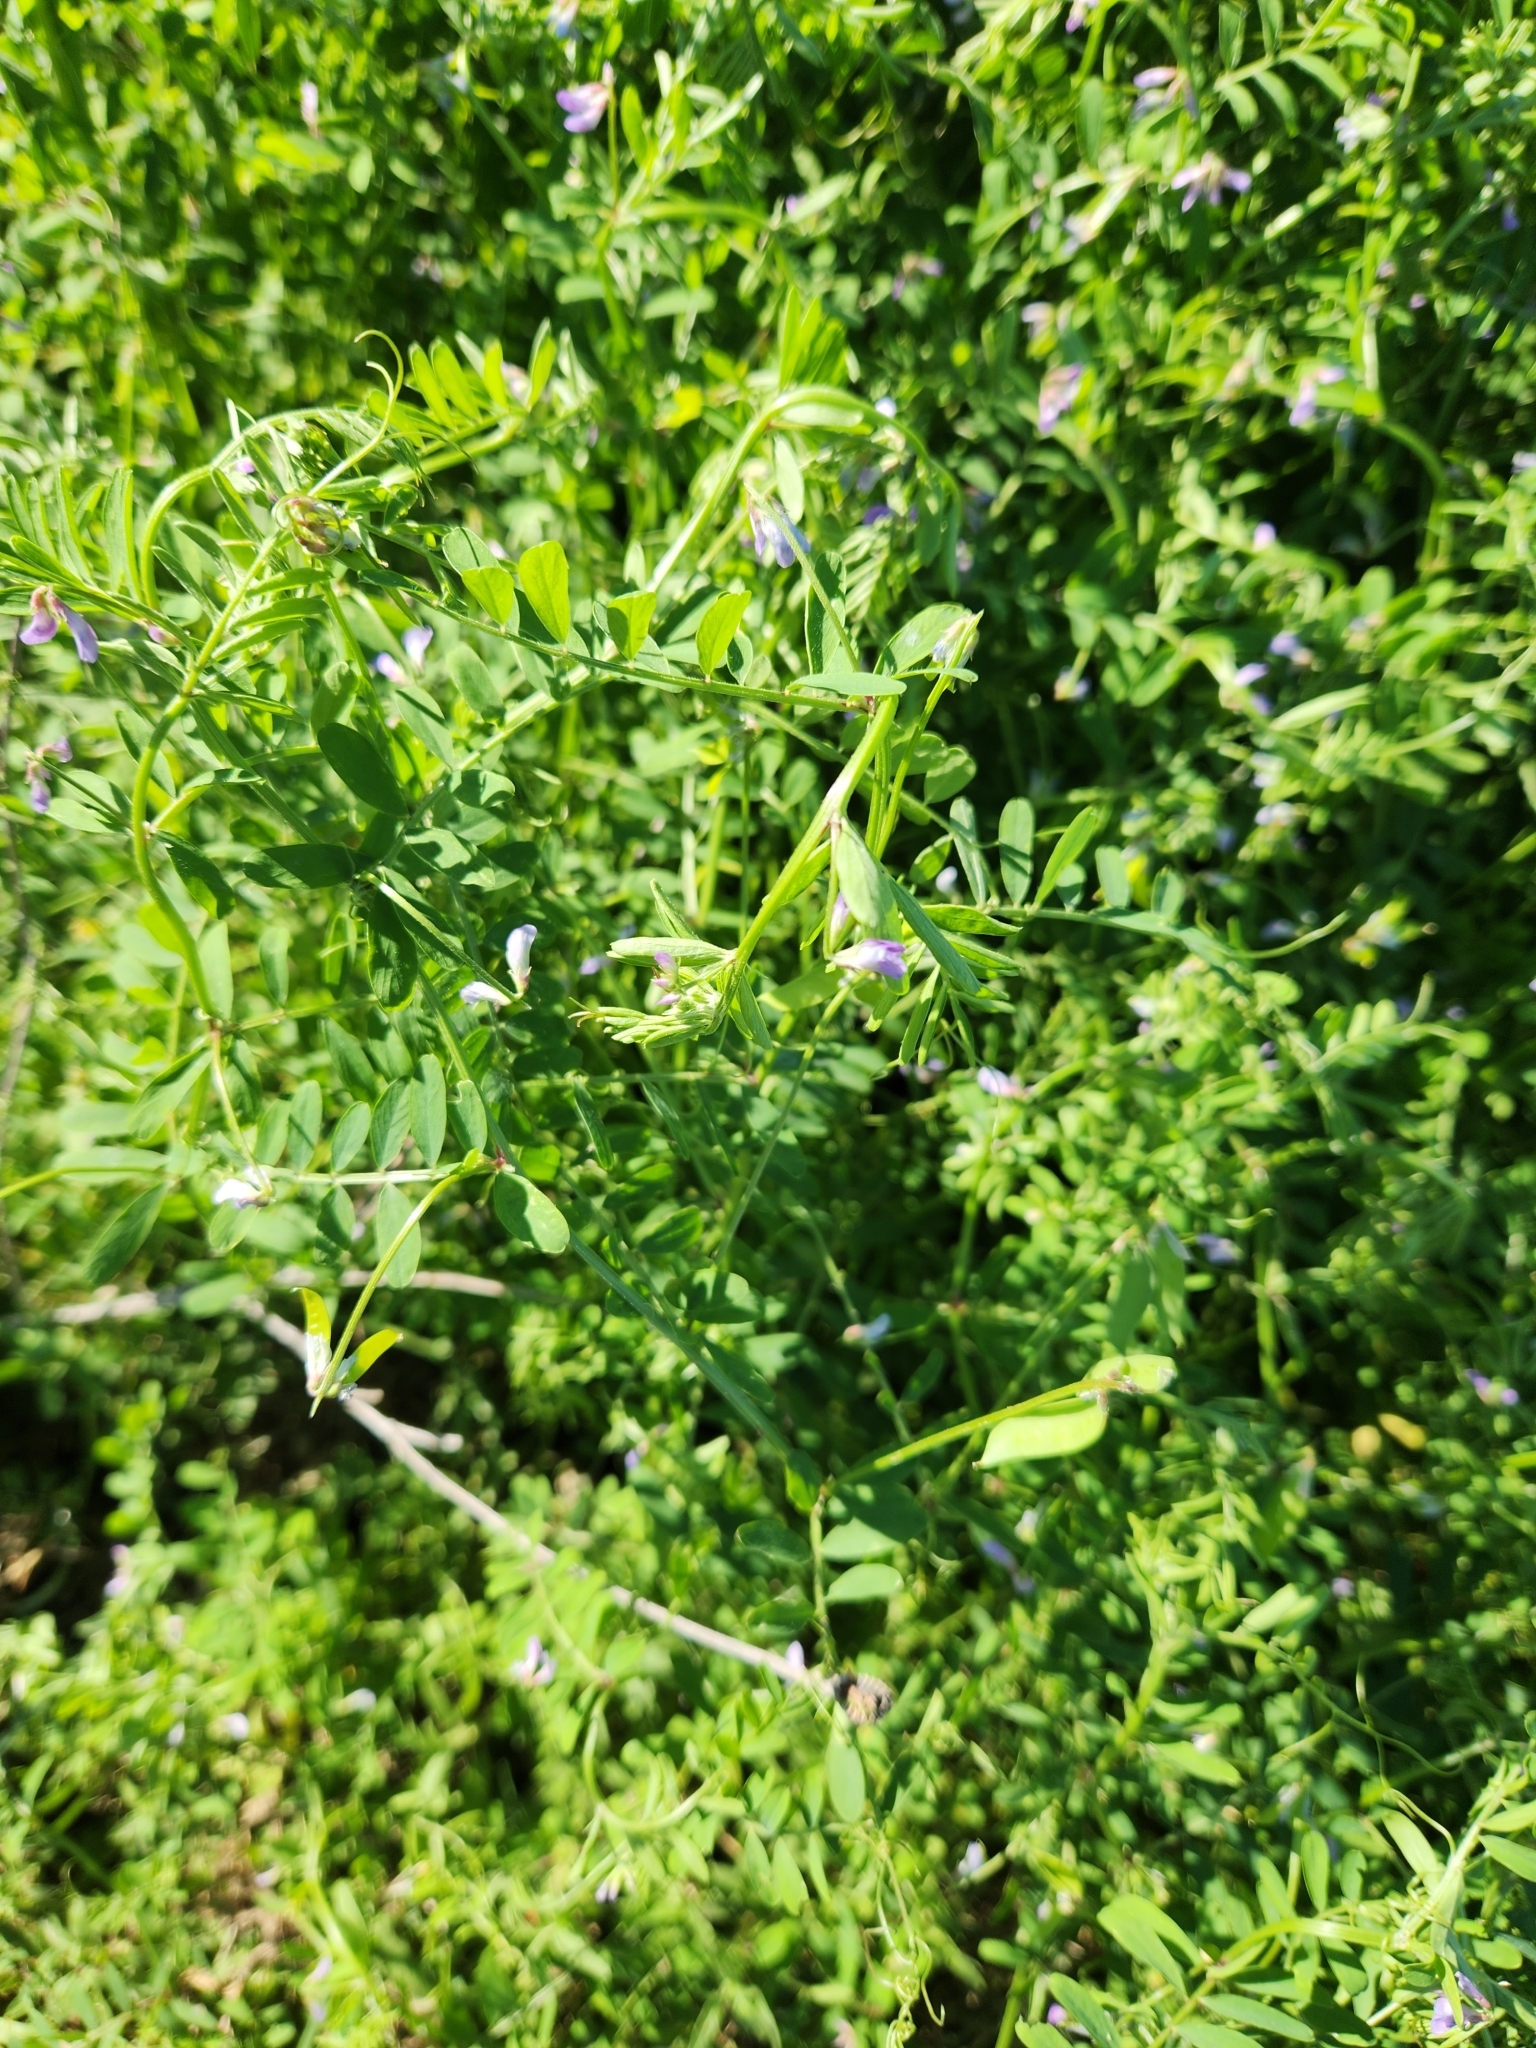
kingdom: Plantae
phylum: Tracheophyta
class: Magnoliopsida
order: Fabales
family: Fabaceae
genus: Vicia
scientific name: Vicia ludoviciana
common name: Louisiana vetch
